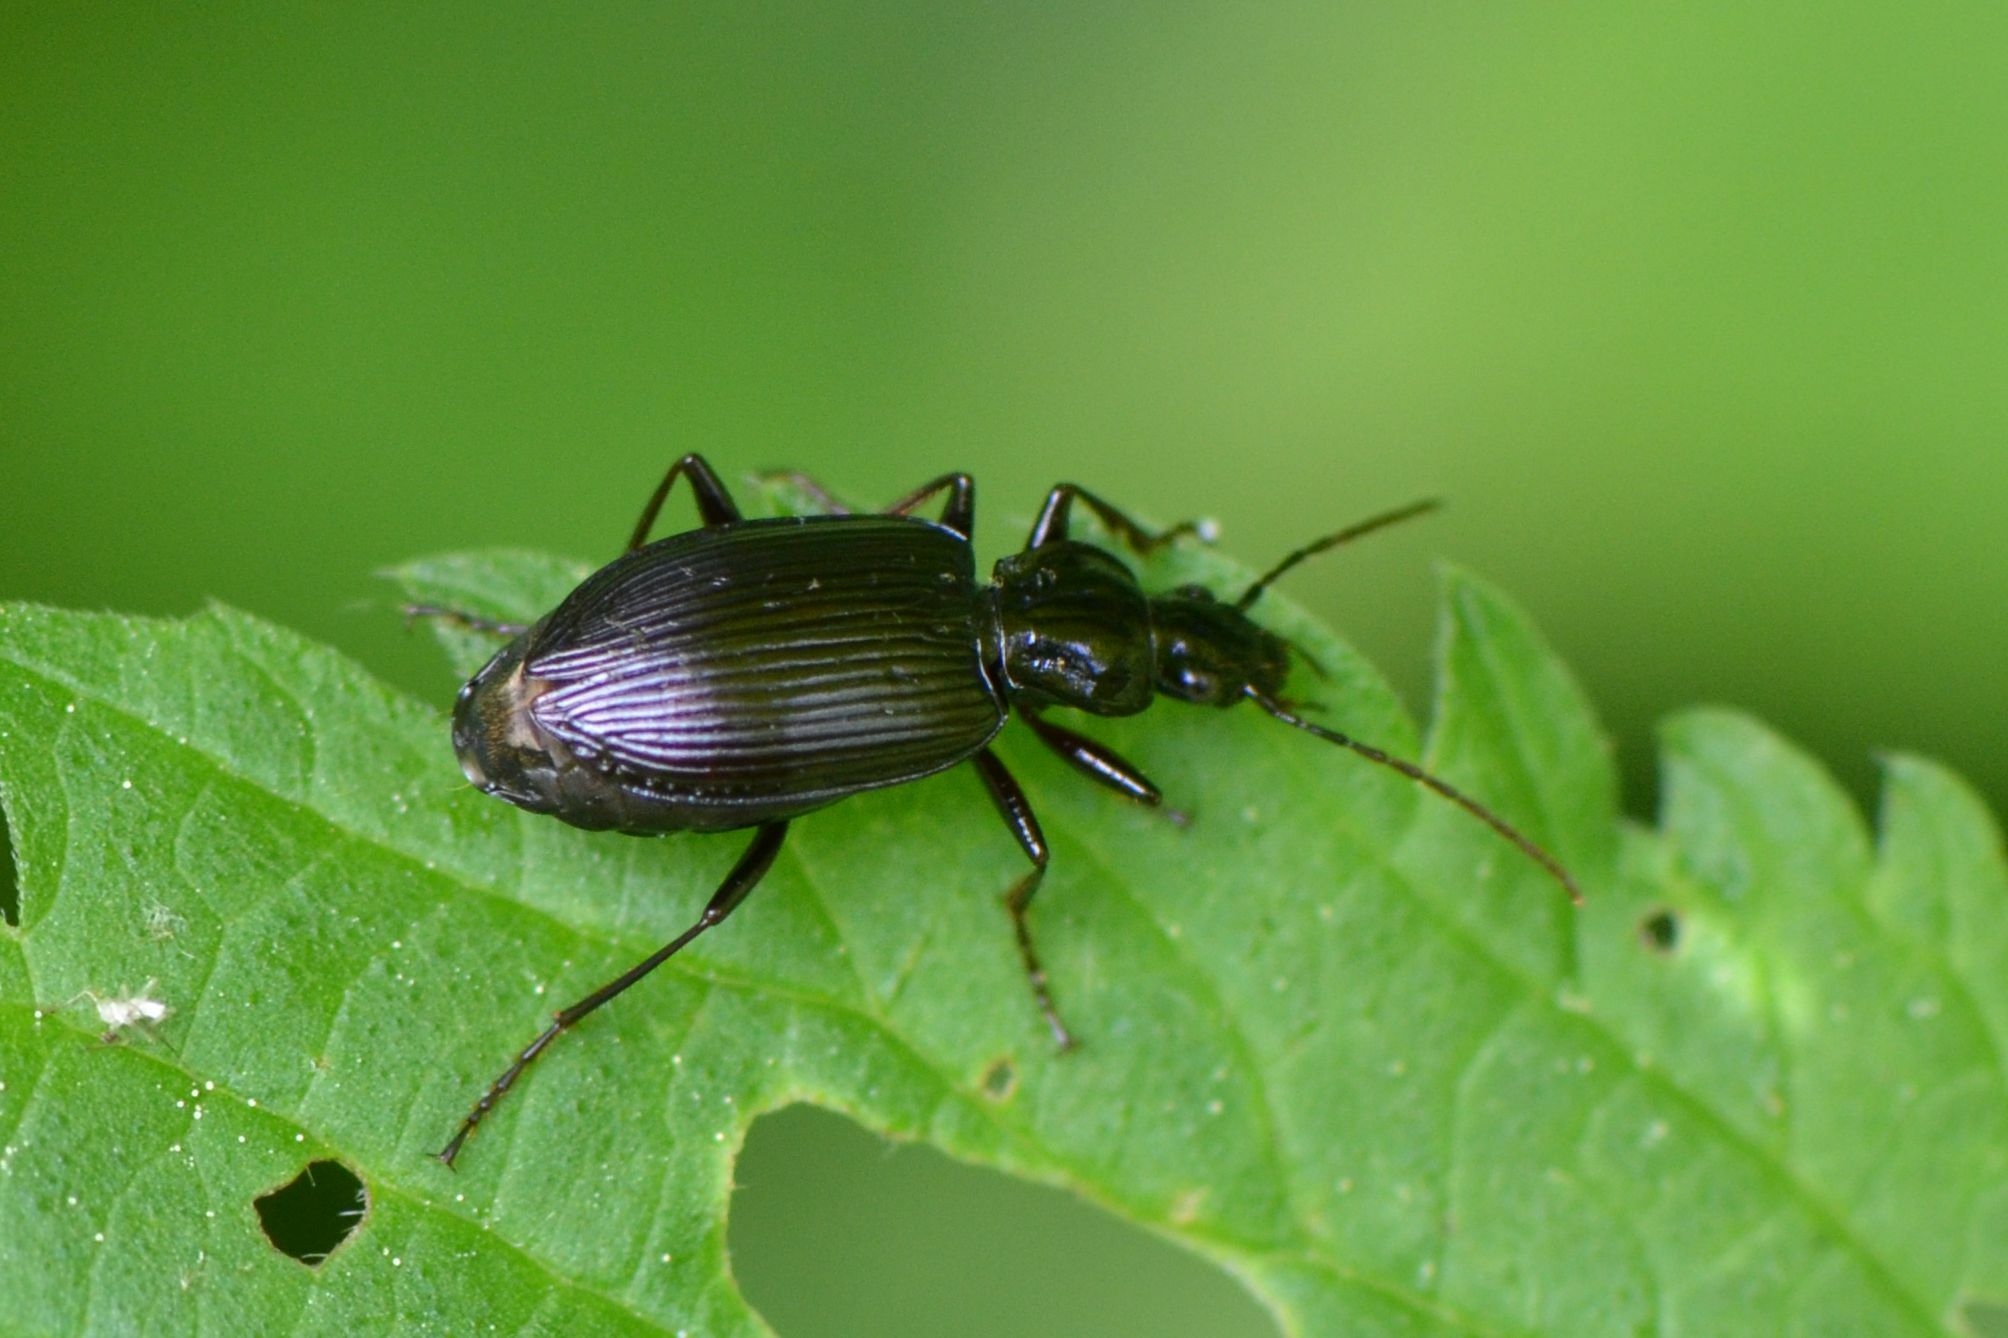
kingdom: Animalia
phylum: Arthropoda
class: Insecta
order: Coleoptera
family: Carabidae
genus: Platynus
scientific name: Platynus assimilis
